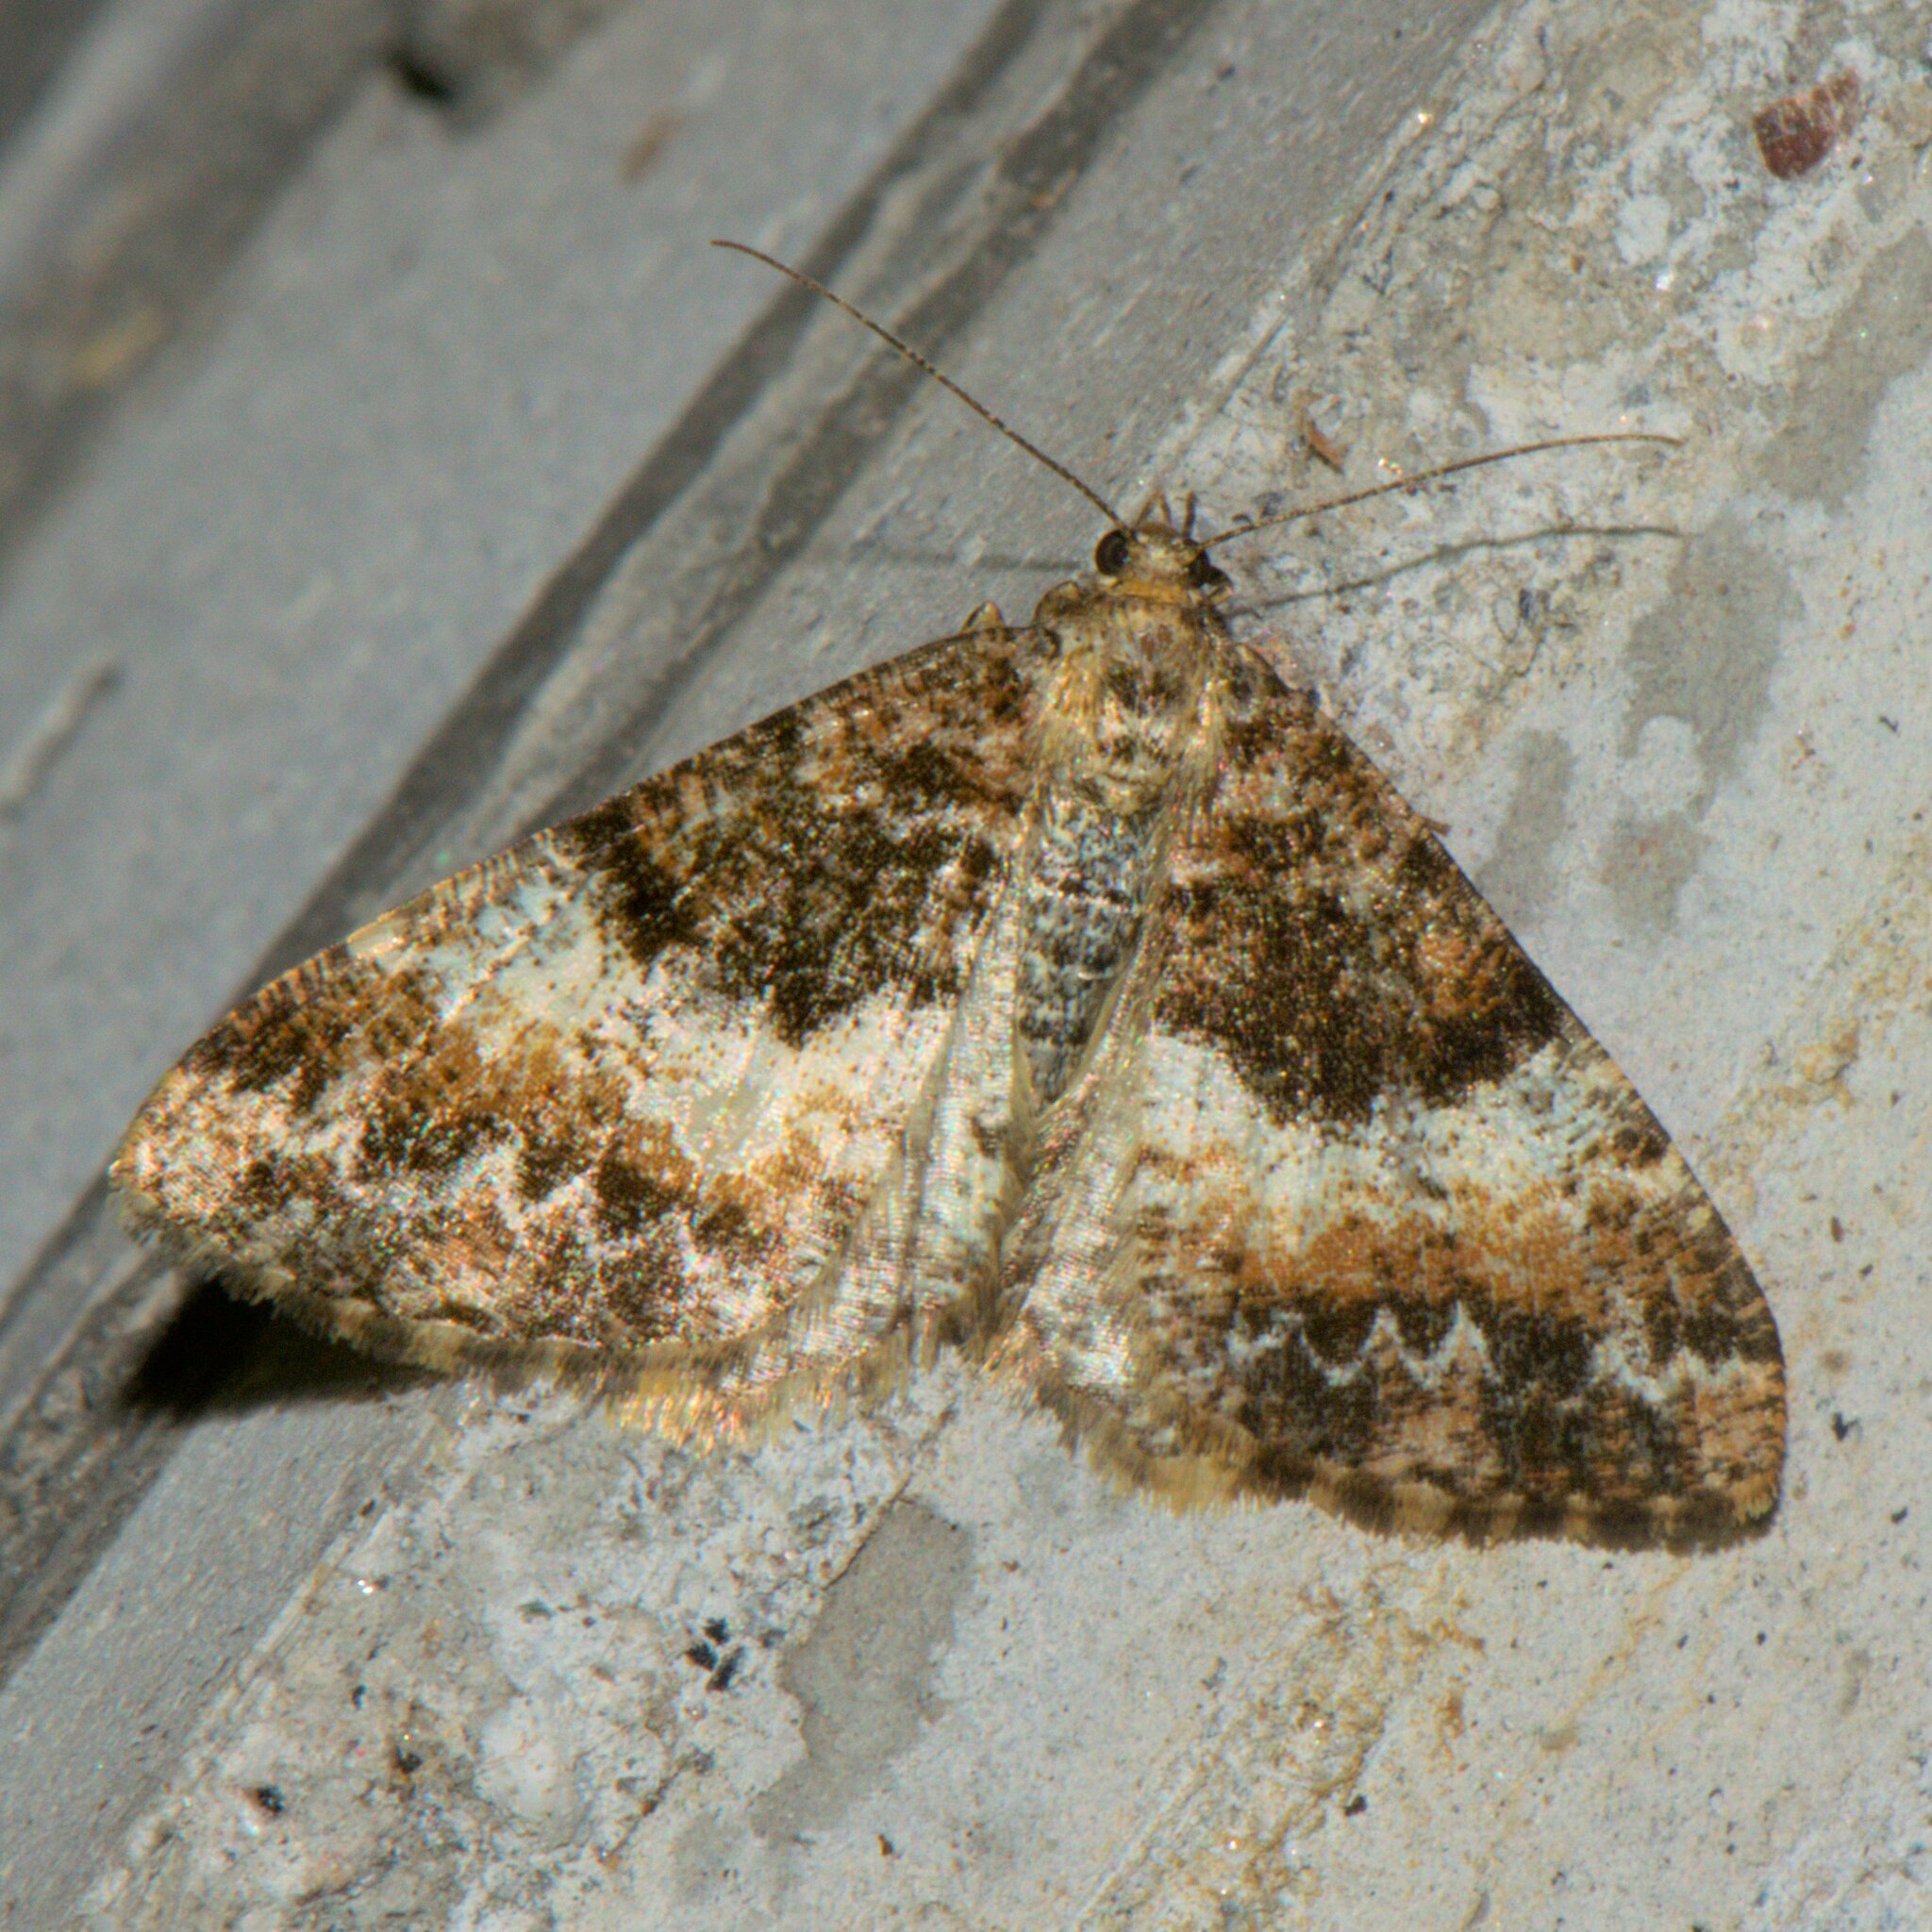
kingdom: Animalia
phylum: Arthropoda
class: Insecta
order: Lepidoptera
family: Geometridae
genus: Alcis
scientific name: Alcis latifasciata
